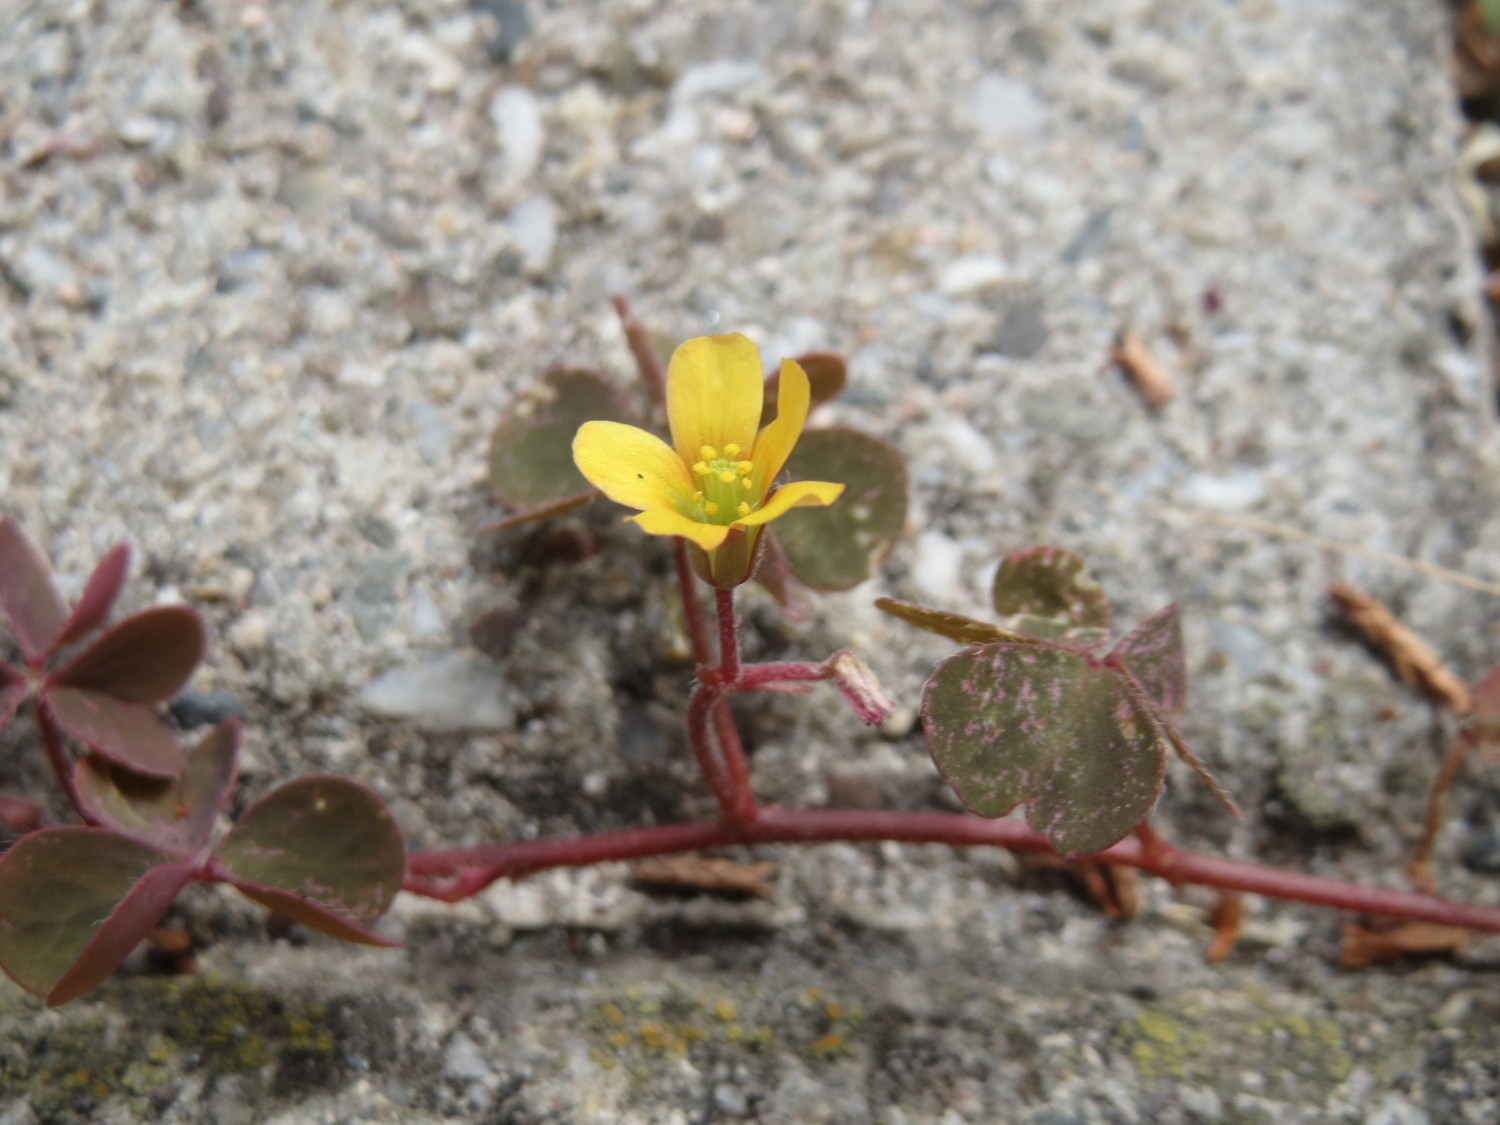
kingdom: Plantae
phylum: Tracheophyta
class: Magnoliopsida
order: Oxalidales
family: Oxalidaceae
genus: Oxalis
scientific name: Oxalis corniculata
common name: Procumbent yellow-sorrel
